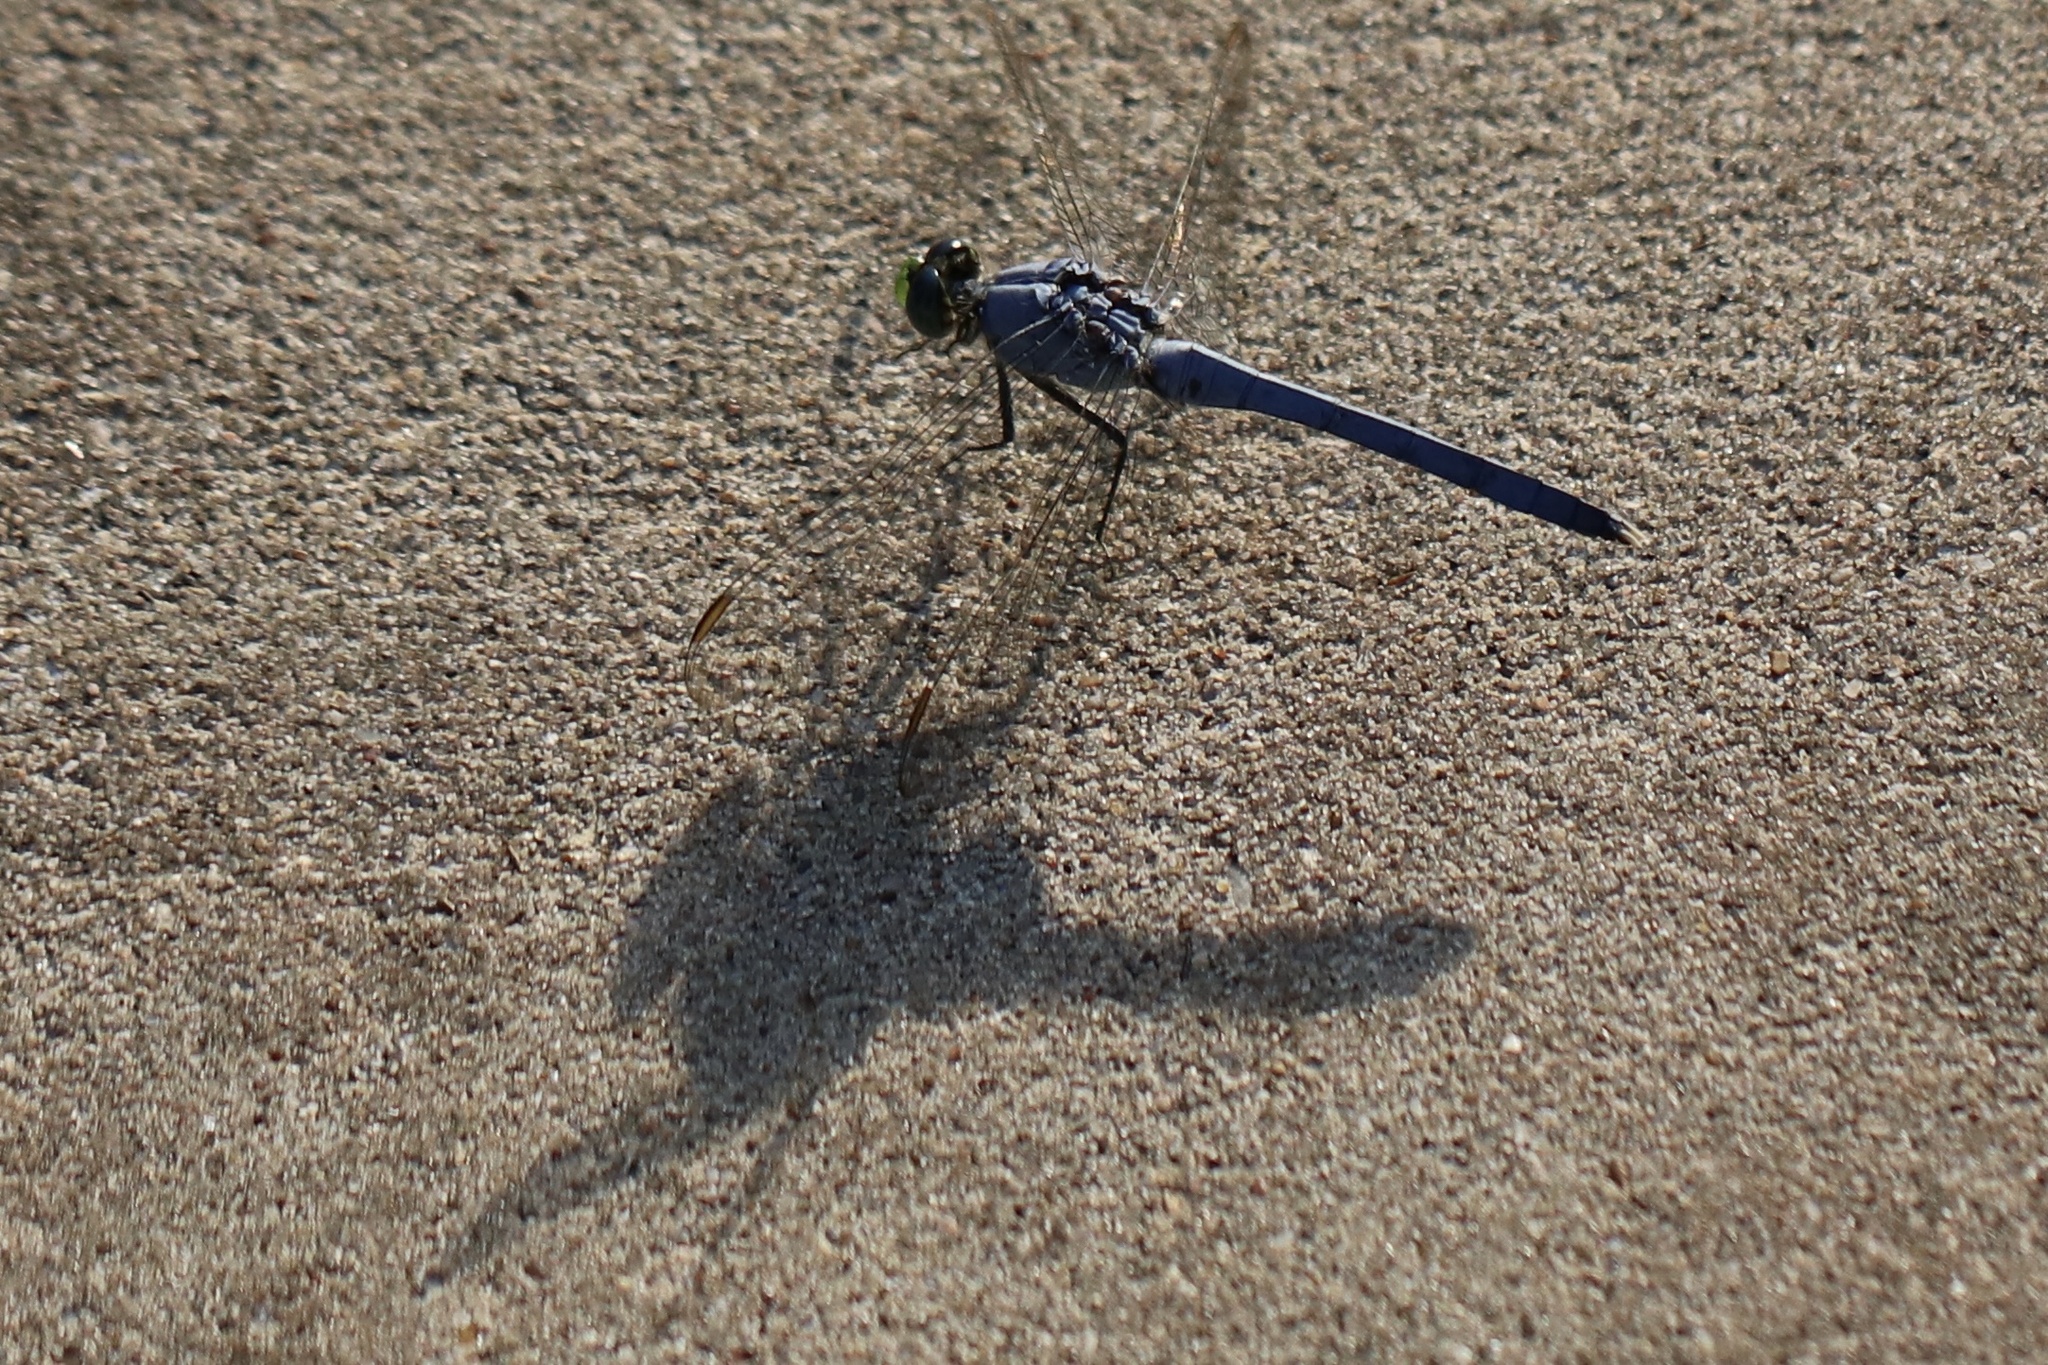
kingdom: Animalia
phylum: Arthropoda
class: Insecta
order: Odonata
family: Libellulidae
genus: Erythemis
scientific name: Erythemis simplicicollis
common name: Eastern pondhawk
